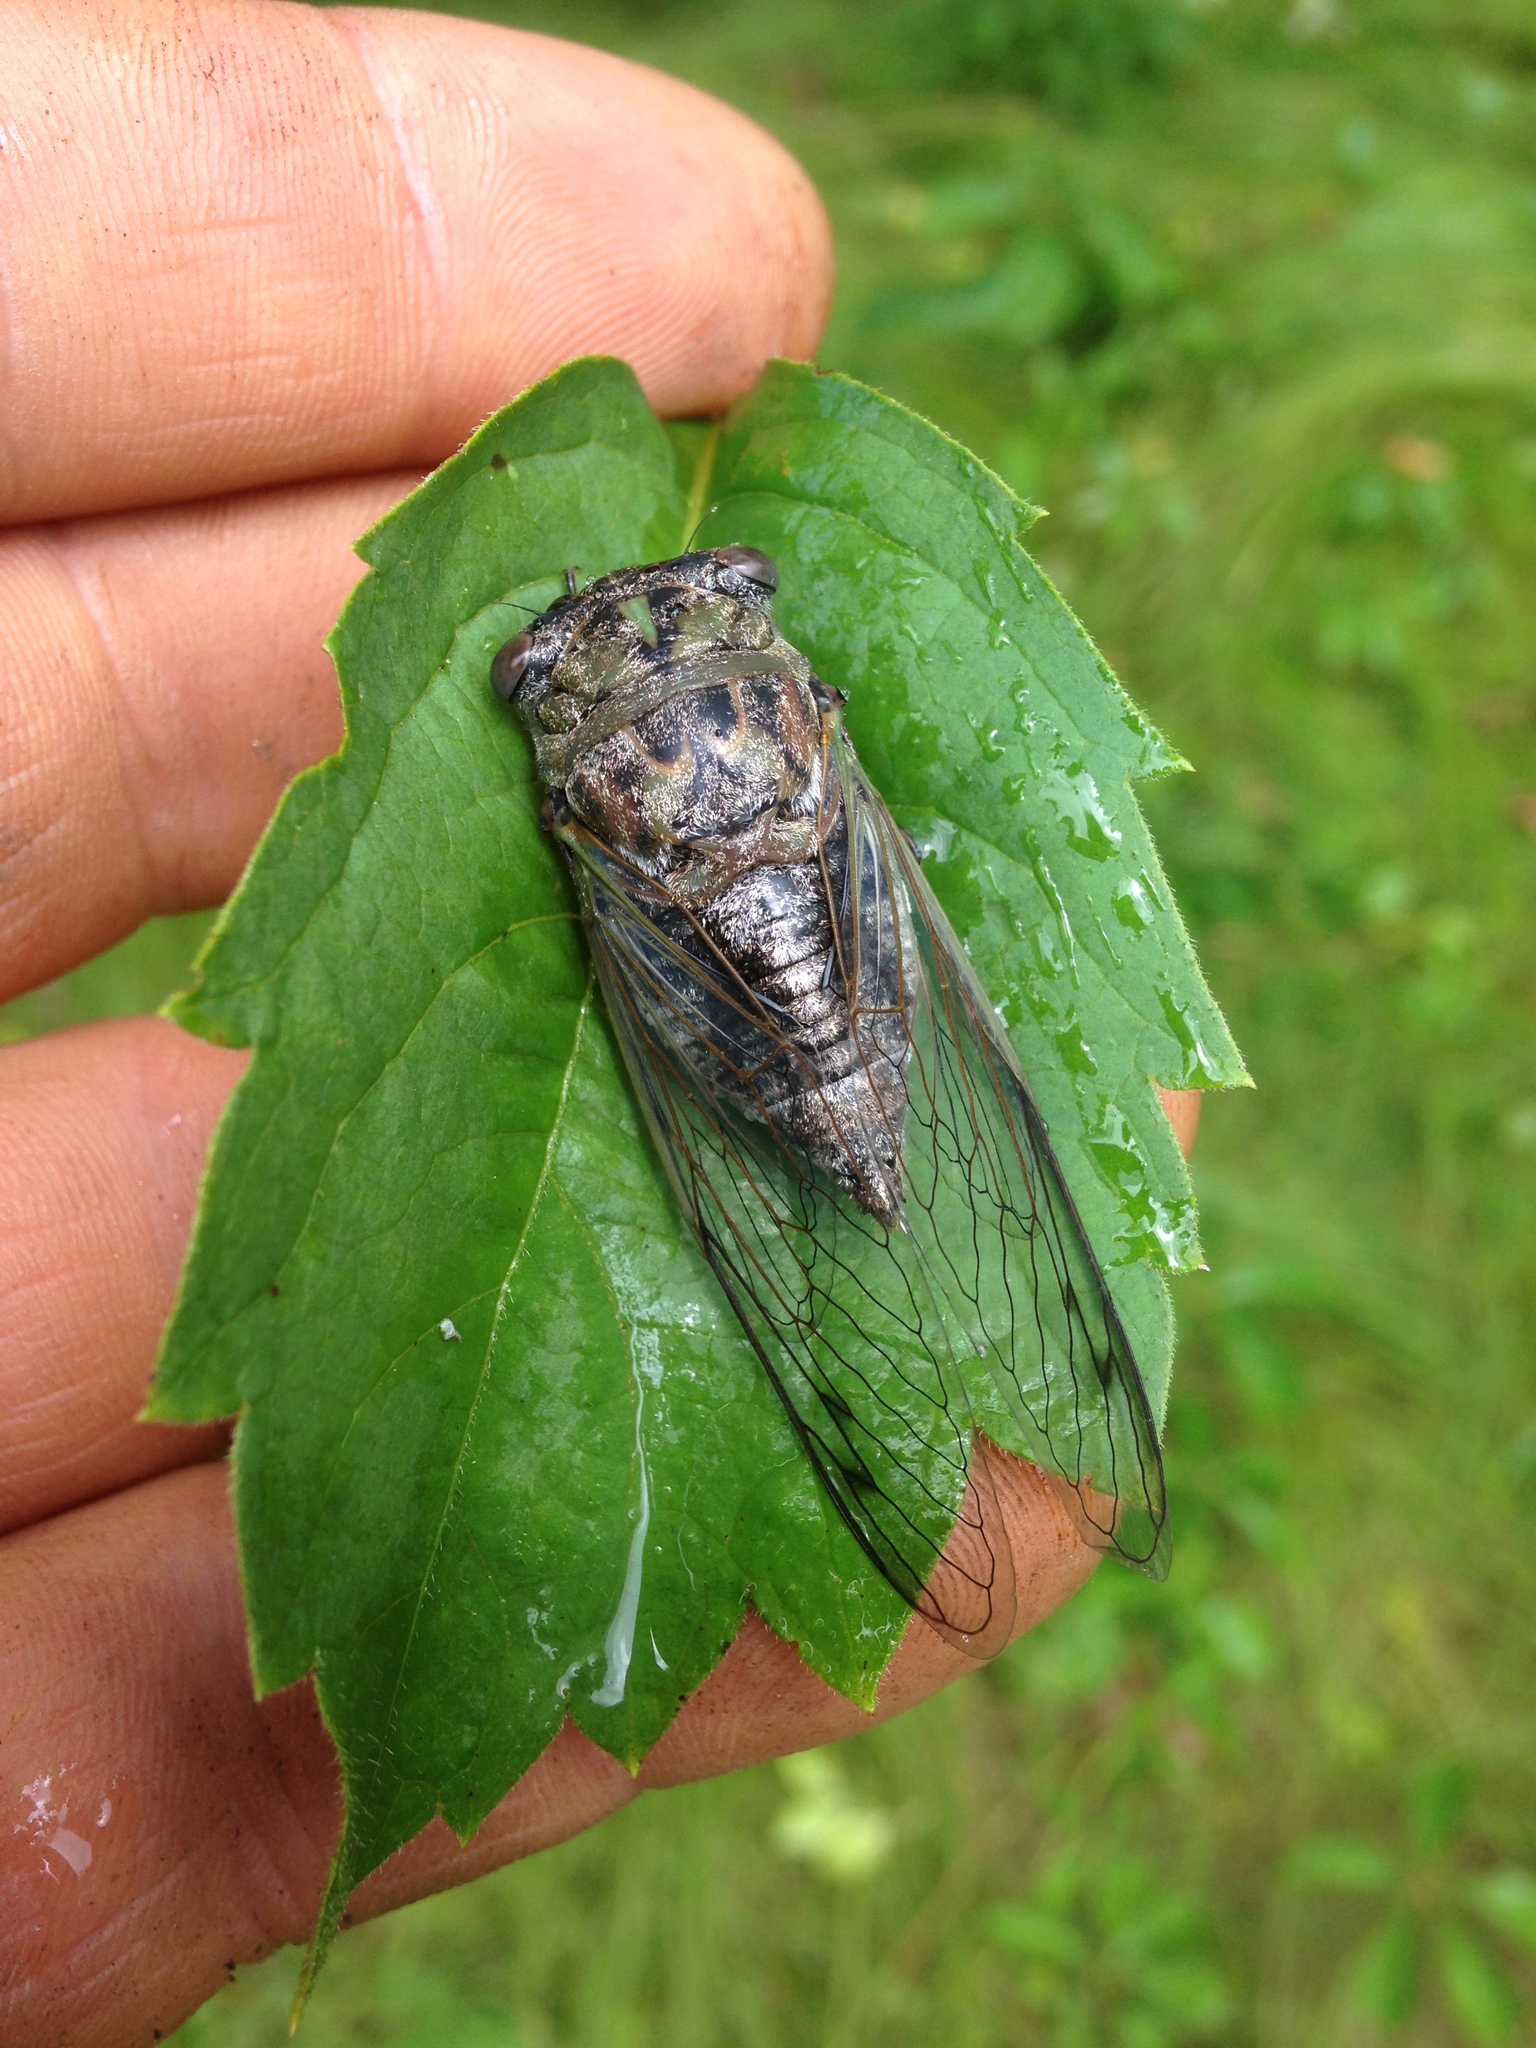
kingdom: Animalia
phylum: Arthropoda
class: Insecta
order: Hemiptera
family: Cicadidae
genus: Neotibicen
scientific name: Neotibicen canicularis
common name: God-day cicada
